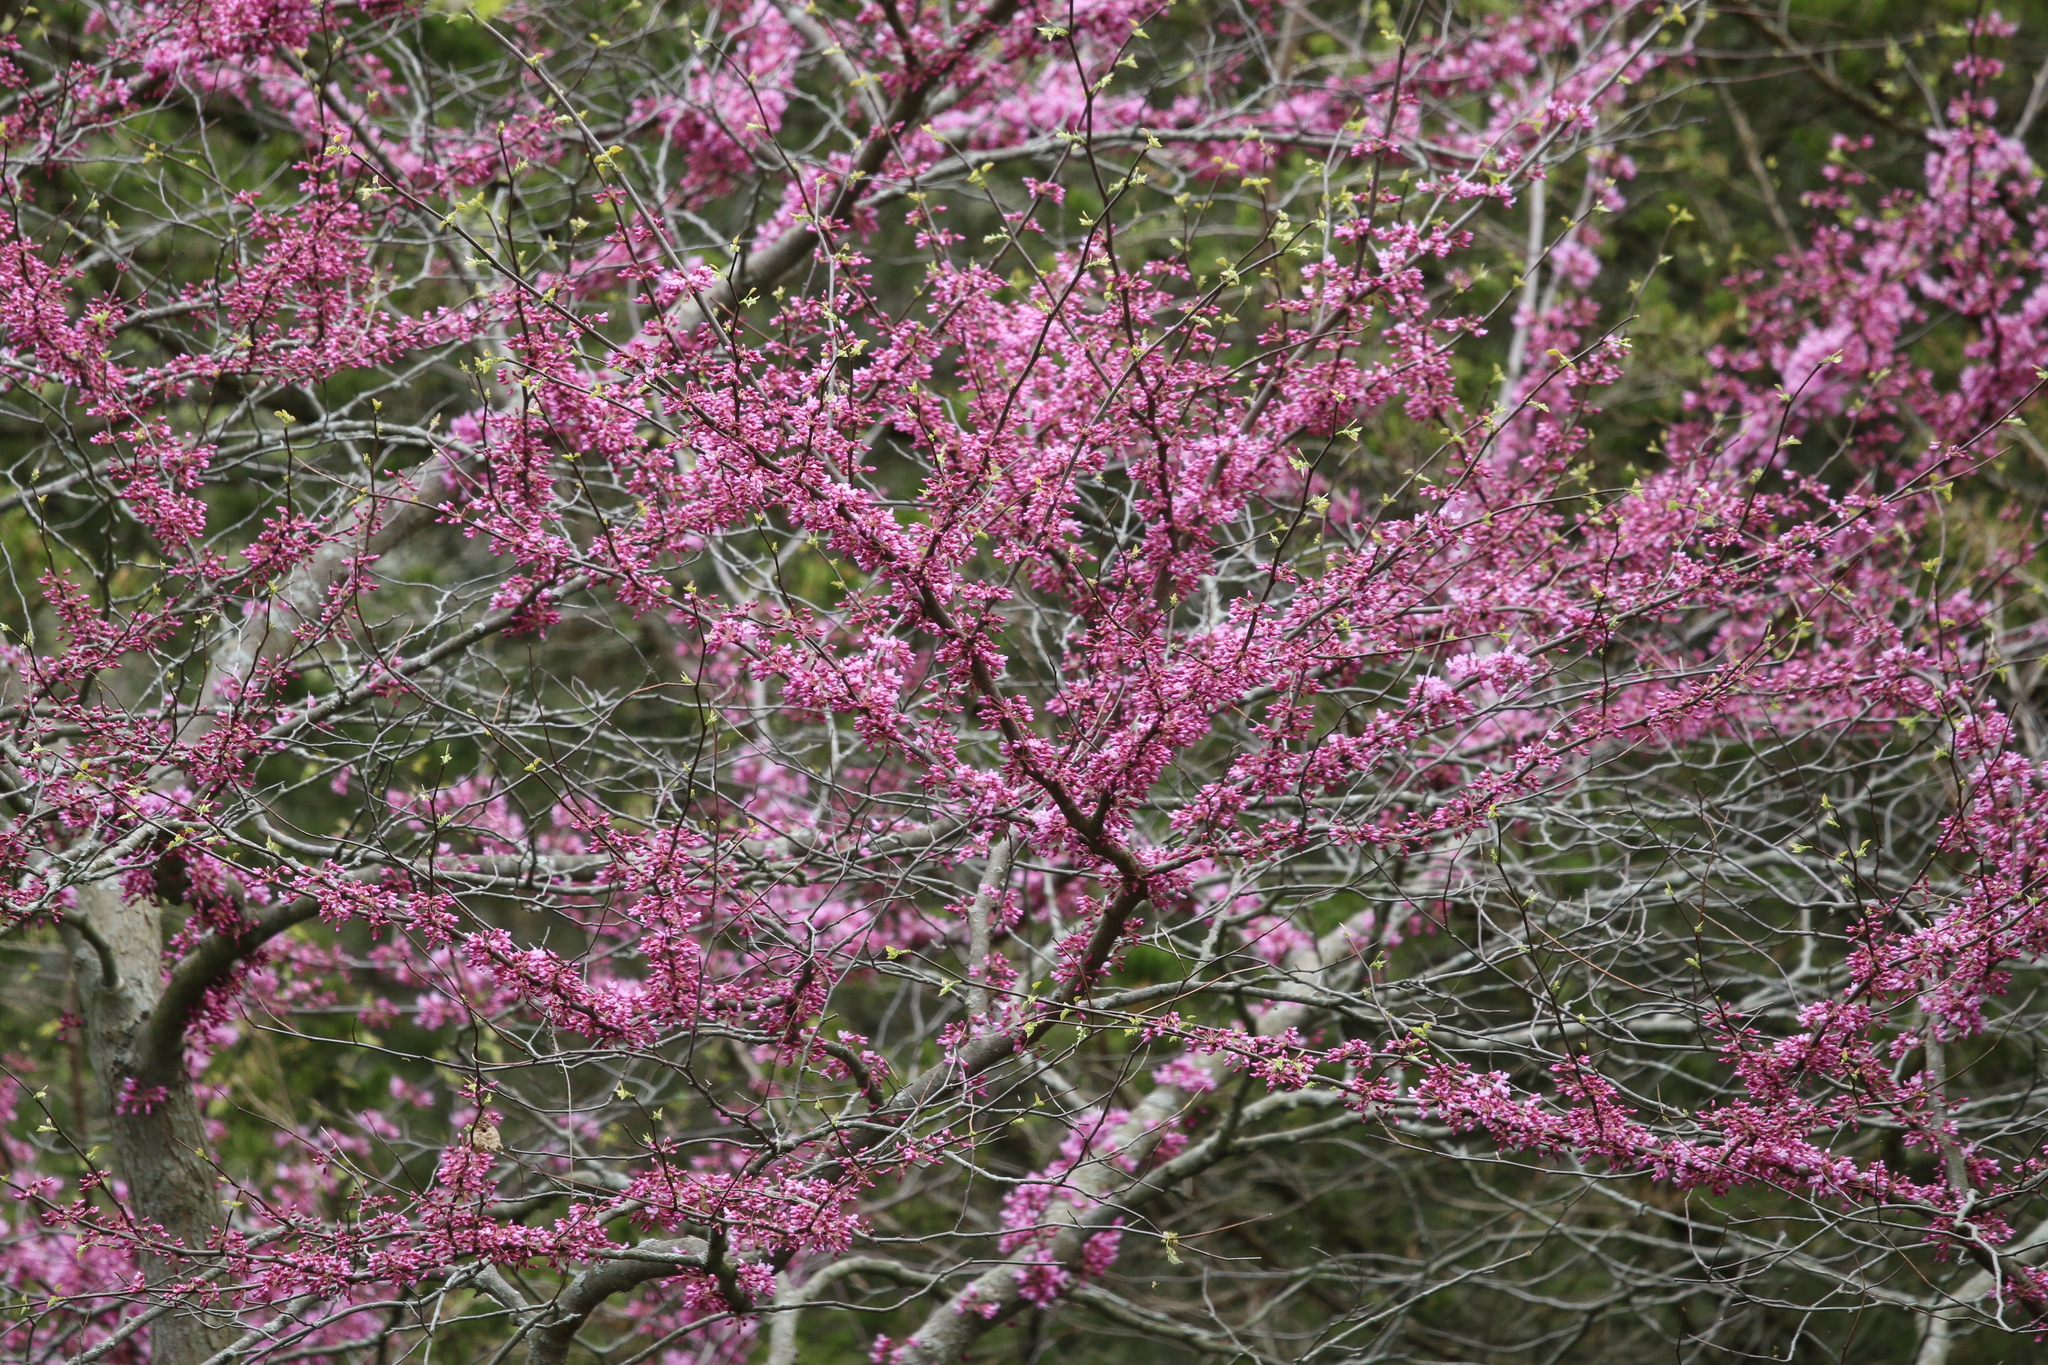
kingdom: Plantae
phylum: Tracheophyta
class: Magnoliopsida
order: Fabales
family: Fabaceae
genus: Cercis
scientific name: Cercis canadensis
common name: Eastern redbud
